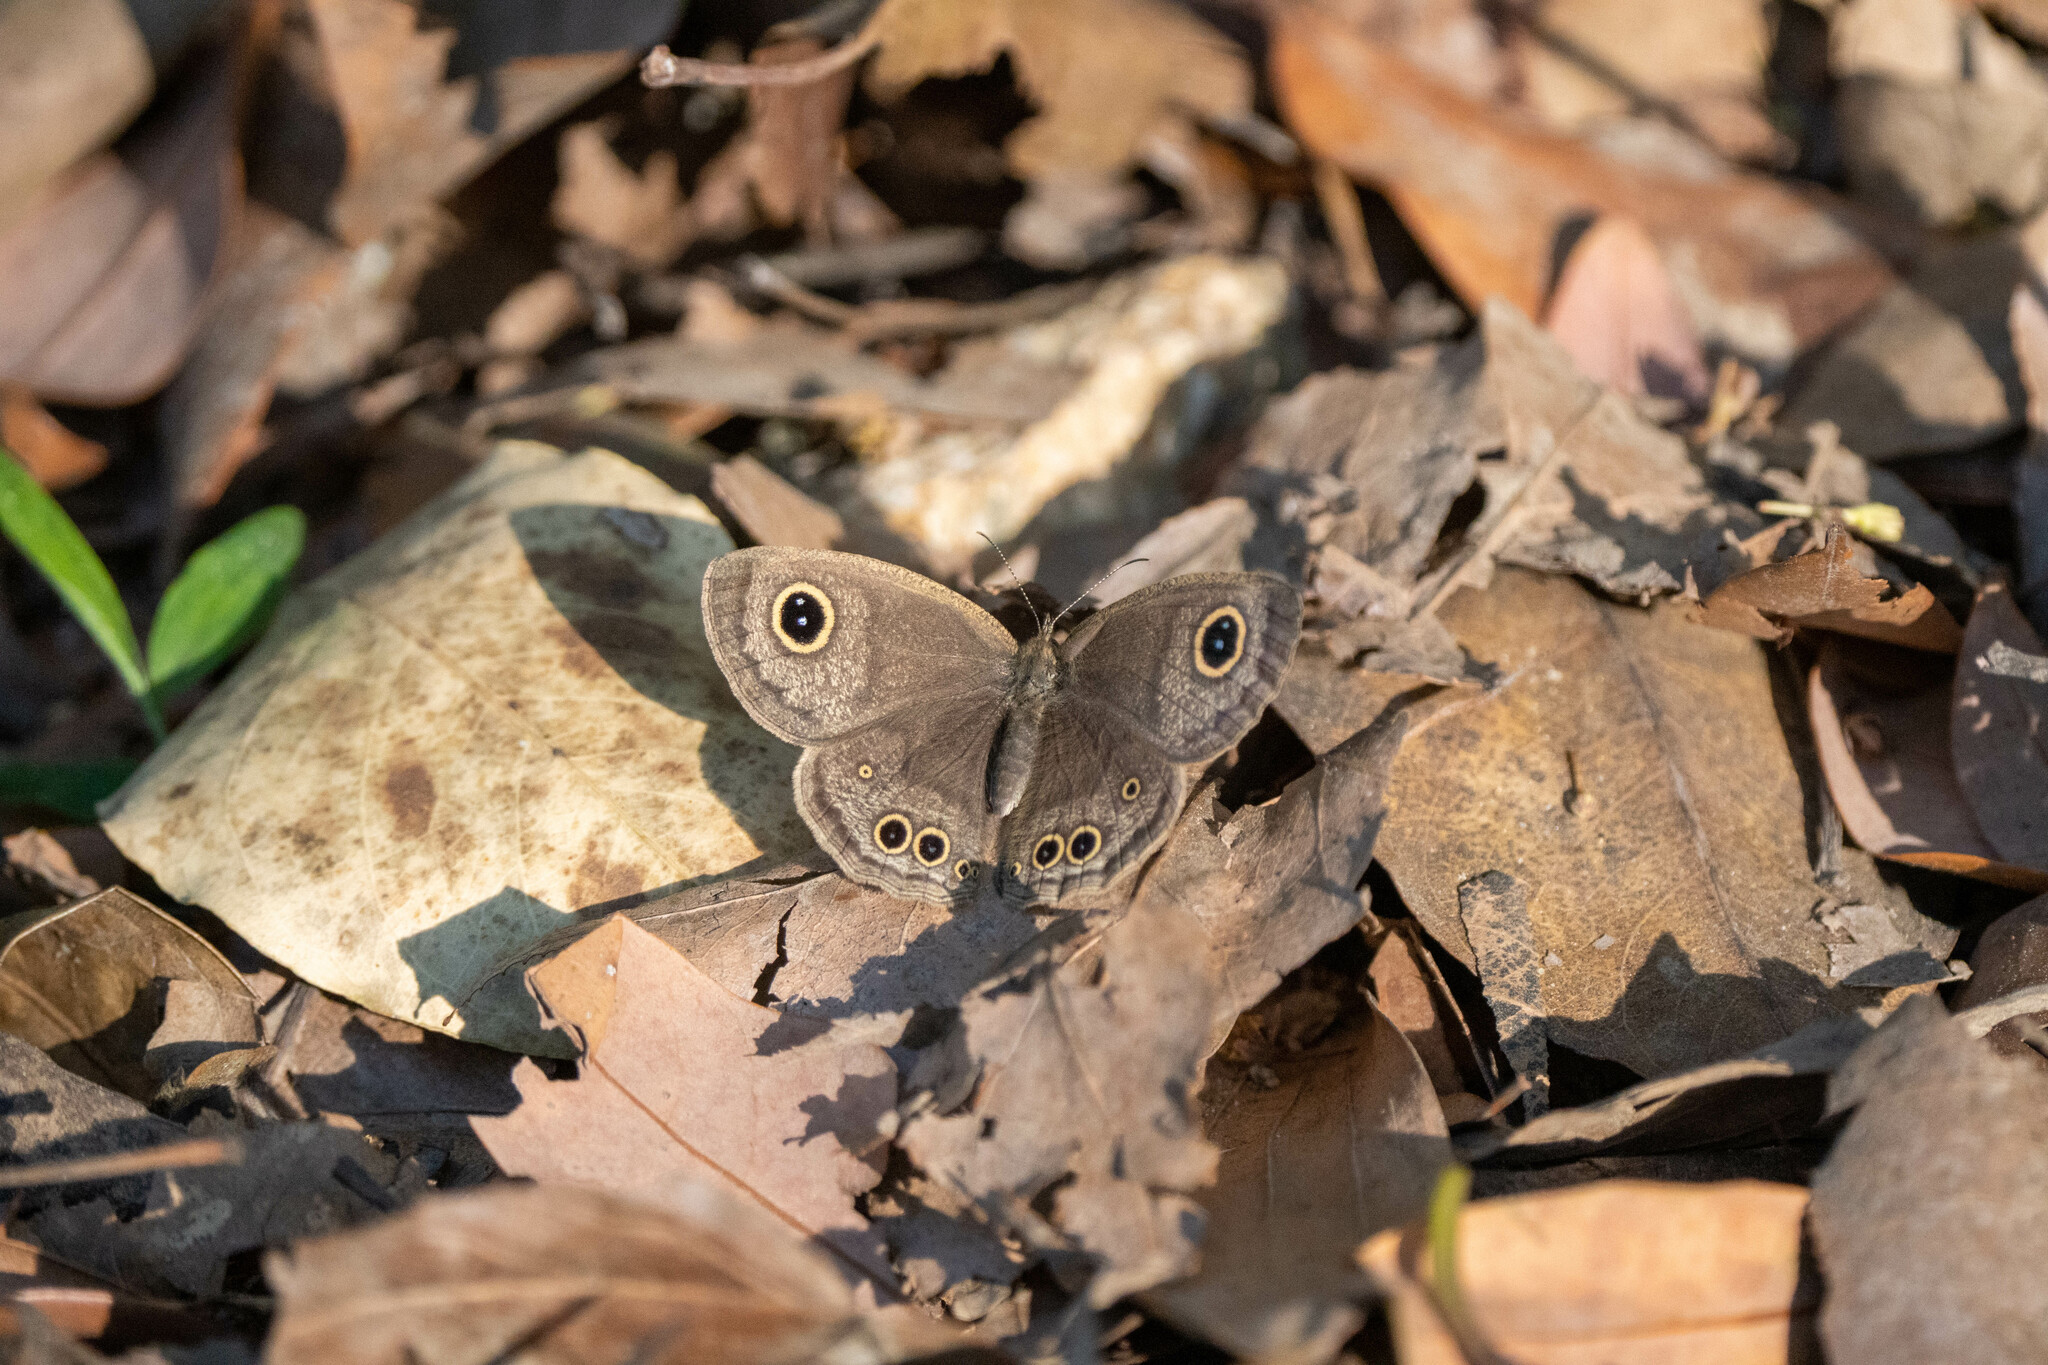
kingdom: Animalia
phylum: Arthropoda
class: Insecta
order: Lepidoptera
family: Nymphalidae
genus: Ypthima
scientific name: Ypthima baldus
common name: Common five-ring
